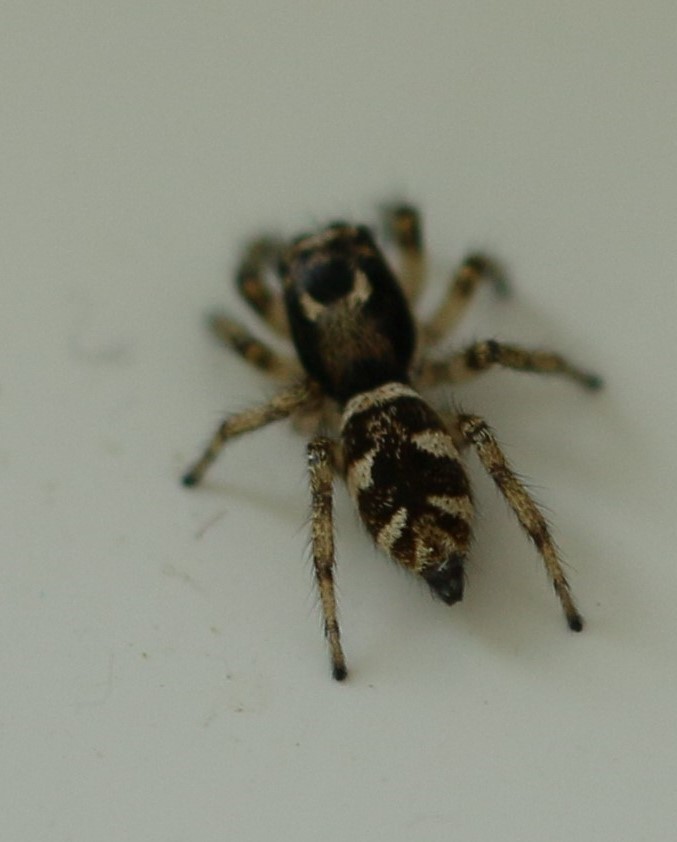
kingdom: Animalia
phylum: Arthropoda
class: Arachnida
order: Araneae
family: Salticidae
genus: Salticus
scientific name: Salticus scenicus
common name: Zebra jumper
